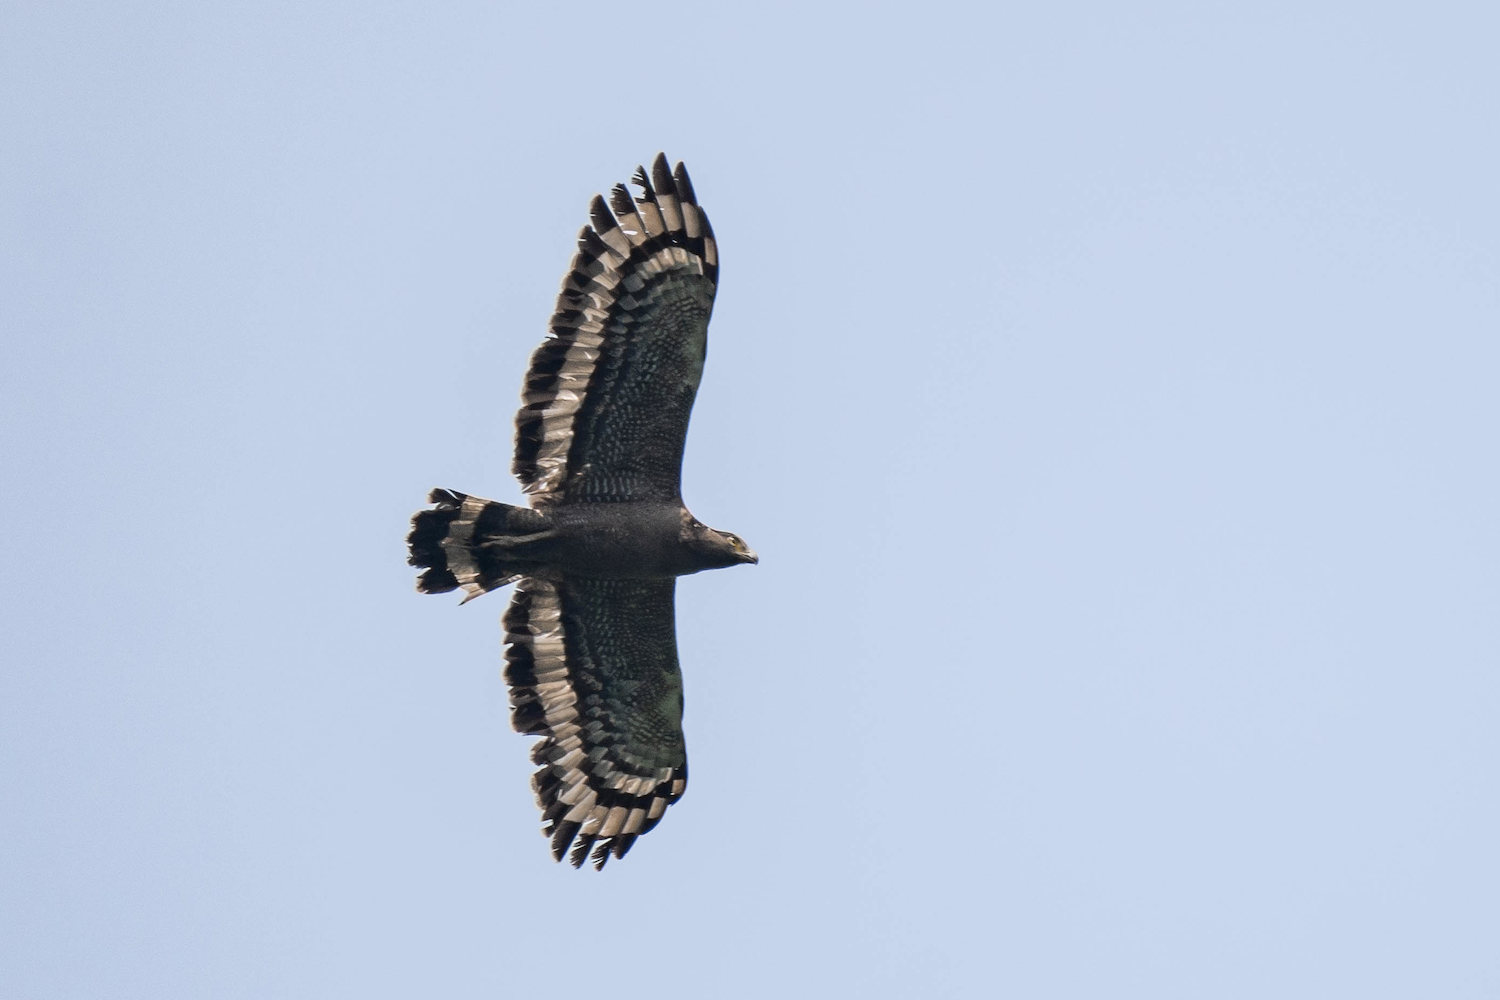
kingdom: Animalia
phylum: Chordata
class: Aves
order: Accipitriformes
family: Accipitridae
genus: Spilornis
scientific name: Spilornis cheela
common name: Crested serpent eagle
